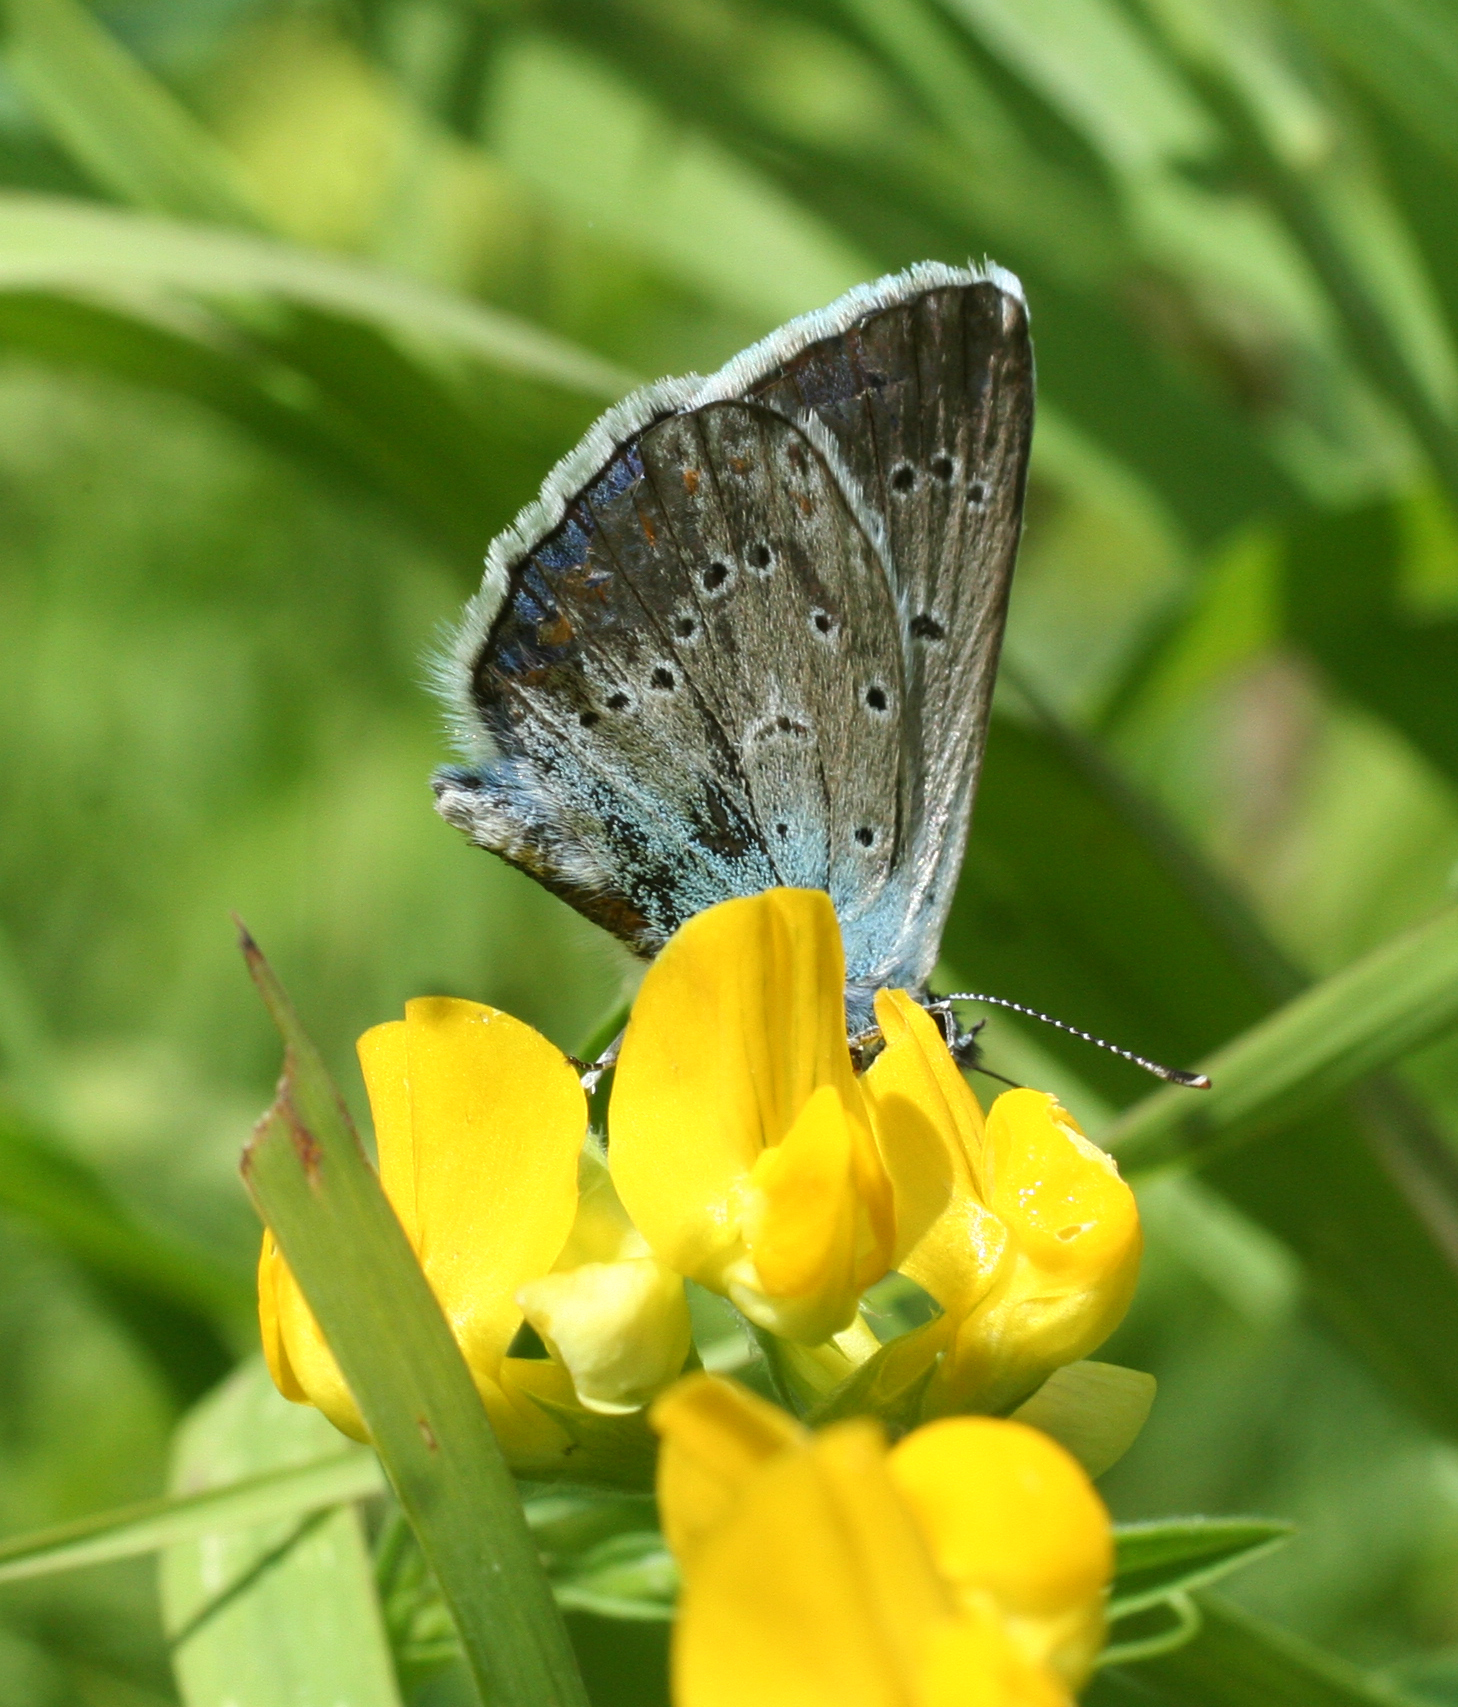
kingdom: Animalia
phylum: Arthropoda
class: Insecta
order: Lepidoptera
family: Lycaenidae
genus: Plebejus
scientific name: Plebejus amanda
